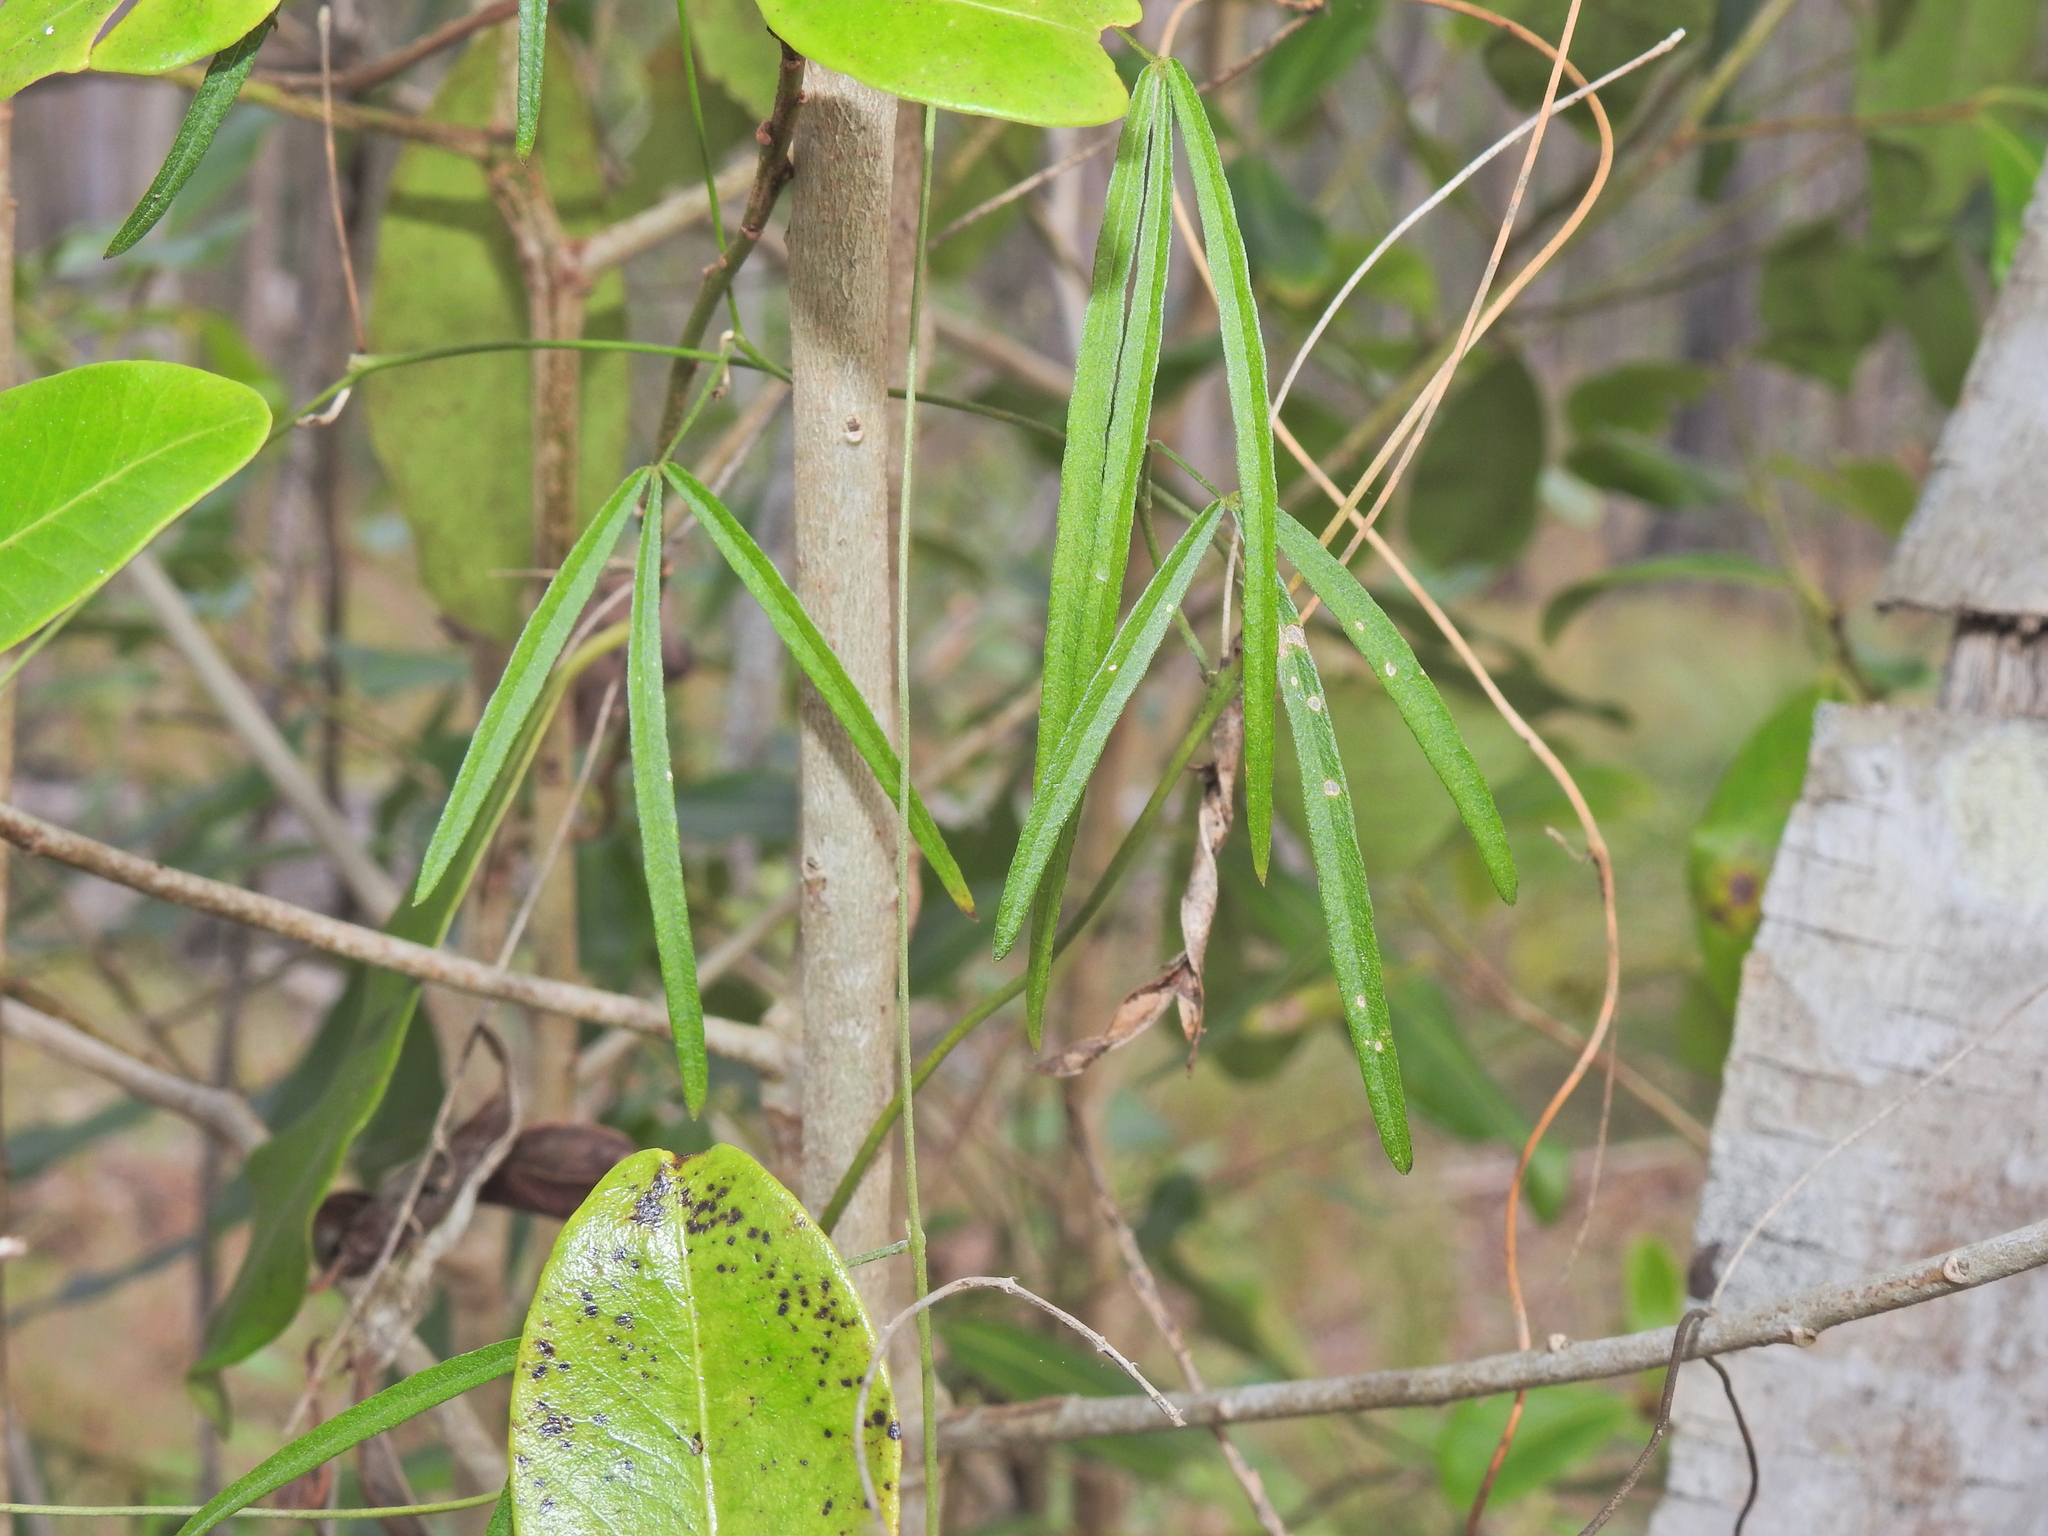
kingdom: Plantae
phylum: Tracheophyta
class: Magnoliopsida
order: Fabales
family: Fabaceae
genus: Glycine
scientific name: Glycine clandestina
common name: Twining glycine
